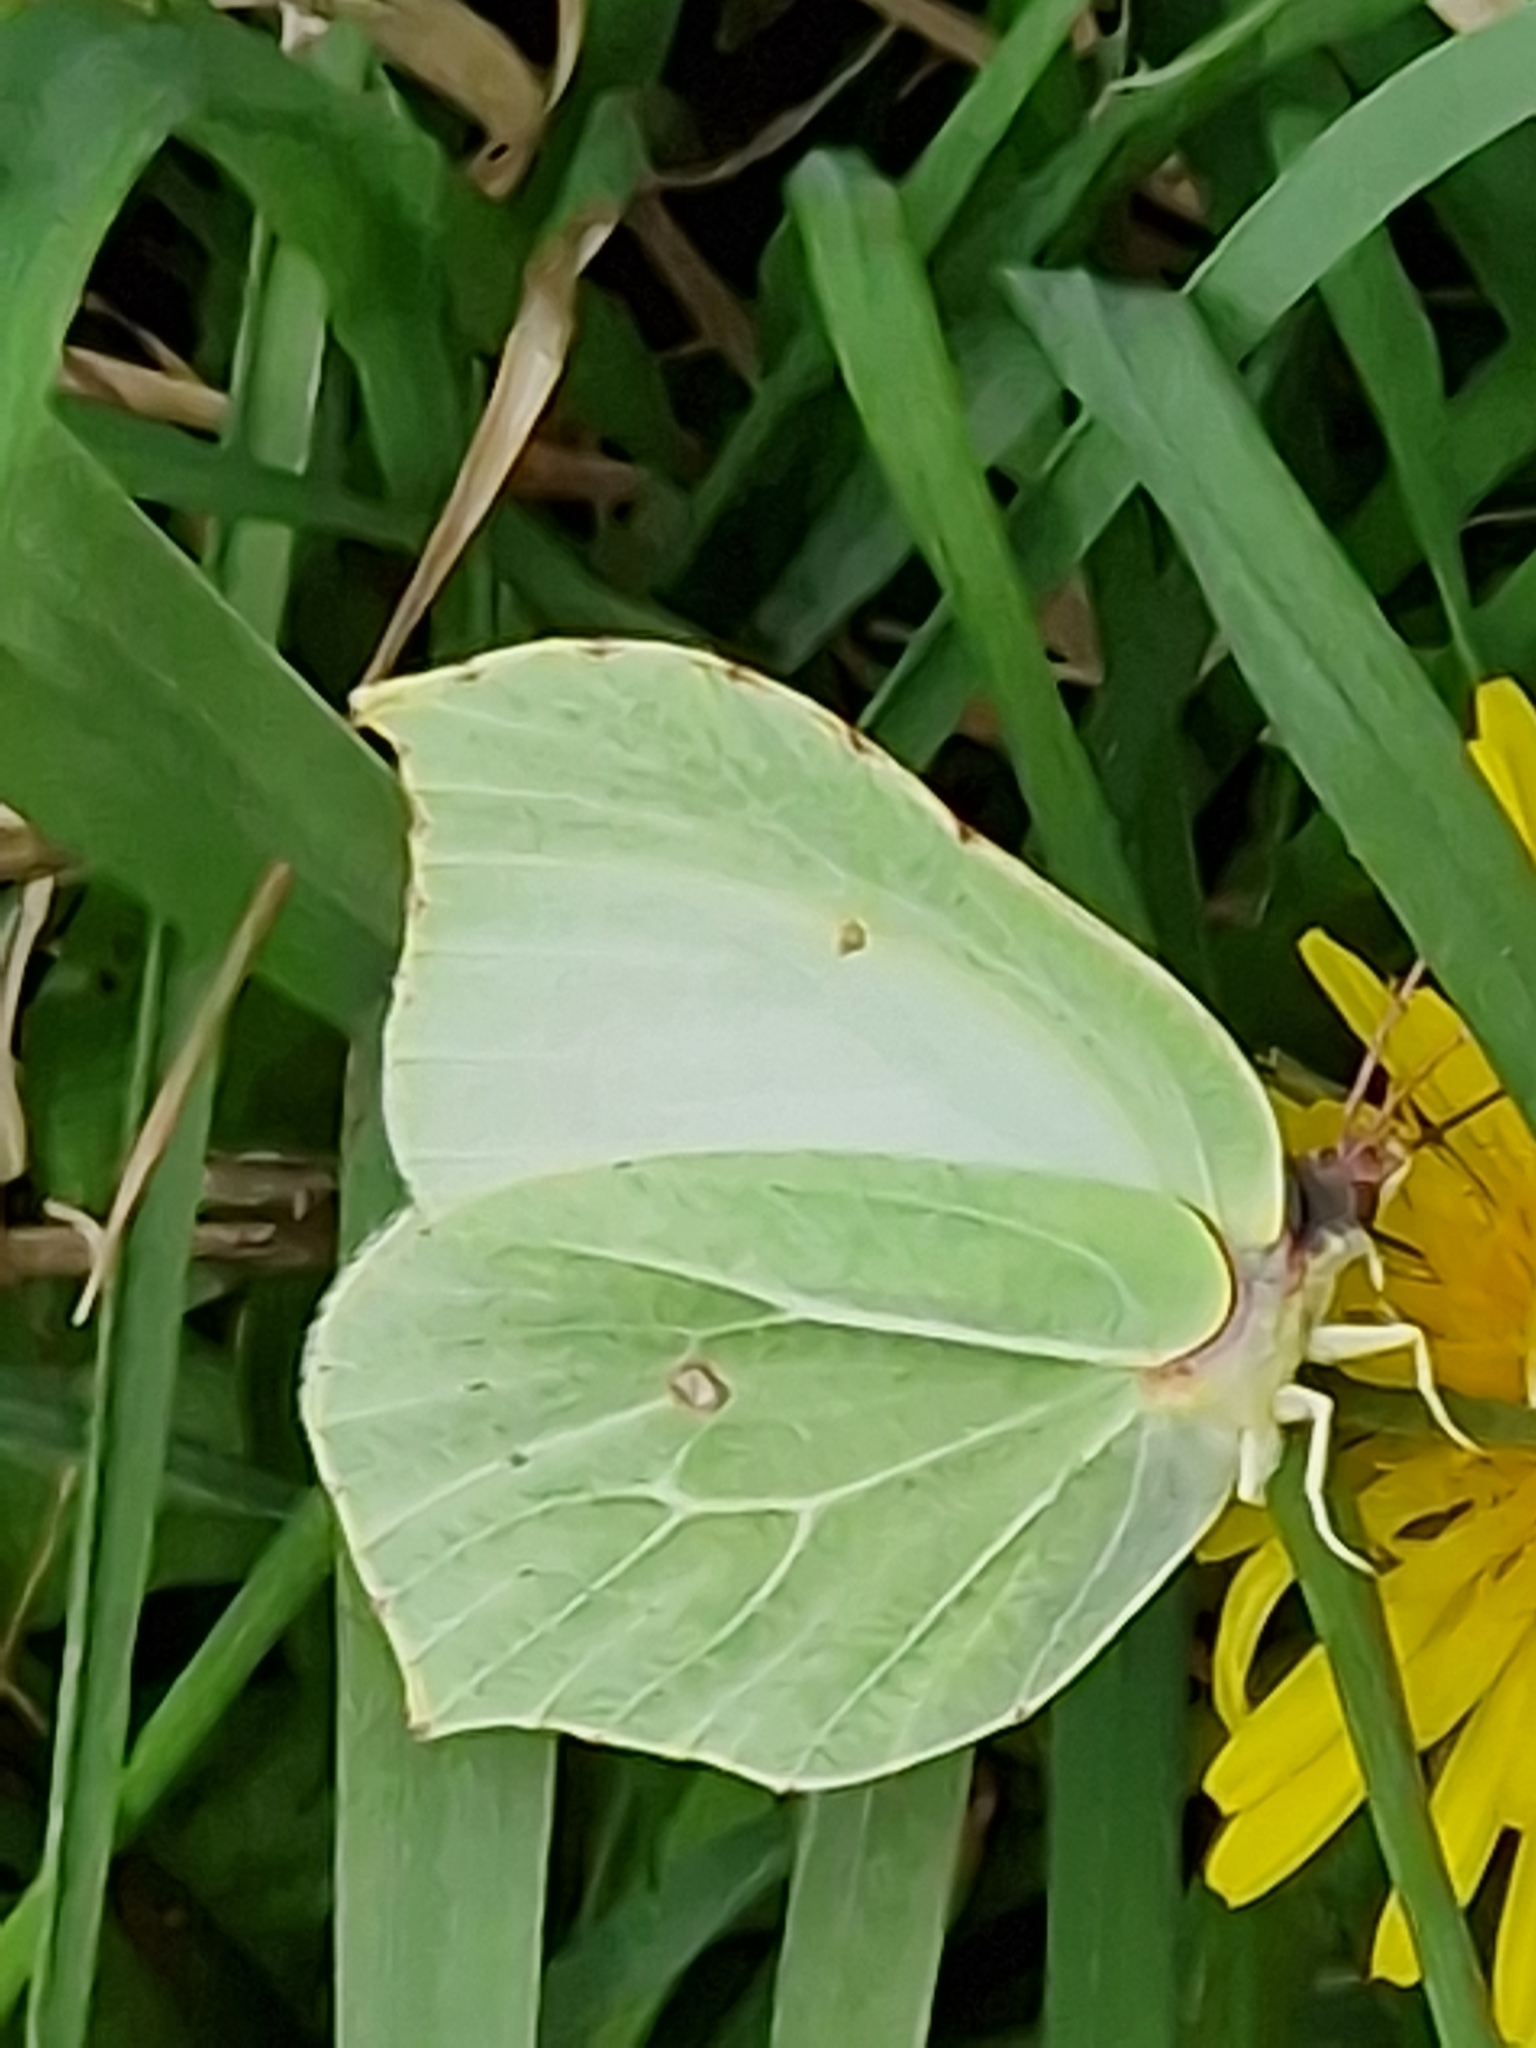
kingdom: Animalia
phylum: Arthropoda
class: Insecta
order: Lepidoptera
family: Pieridae
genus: Gonepteryx
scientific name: Gonepteryx rhamni
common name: Brimstone
